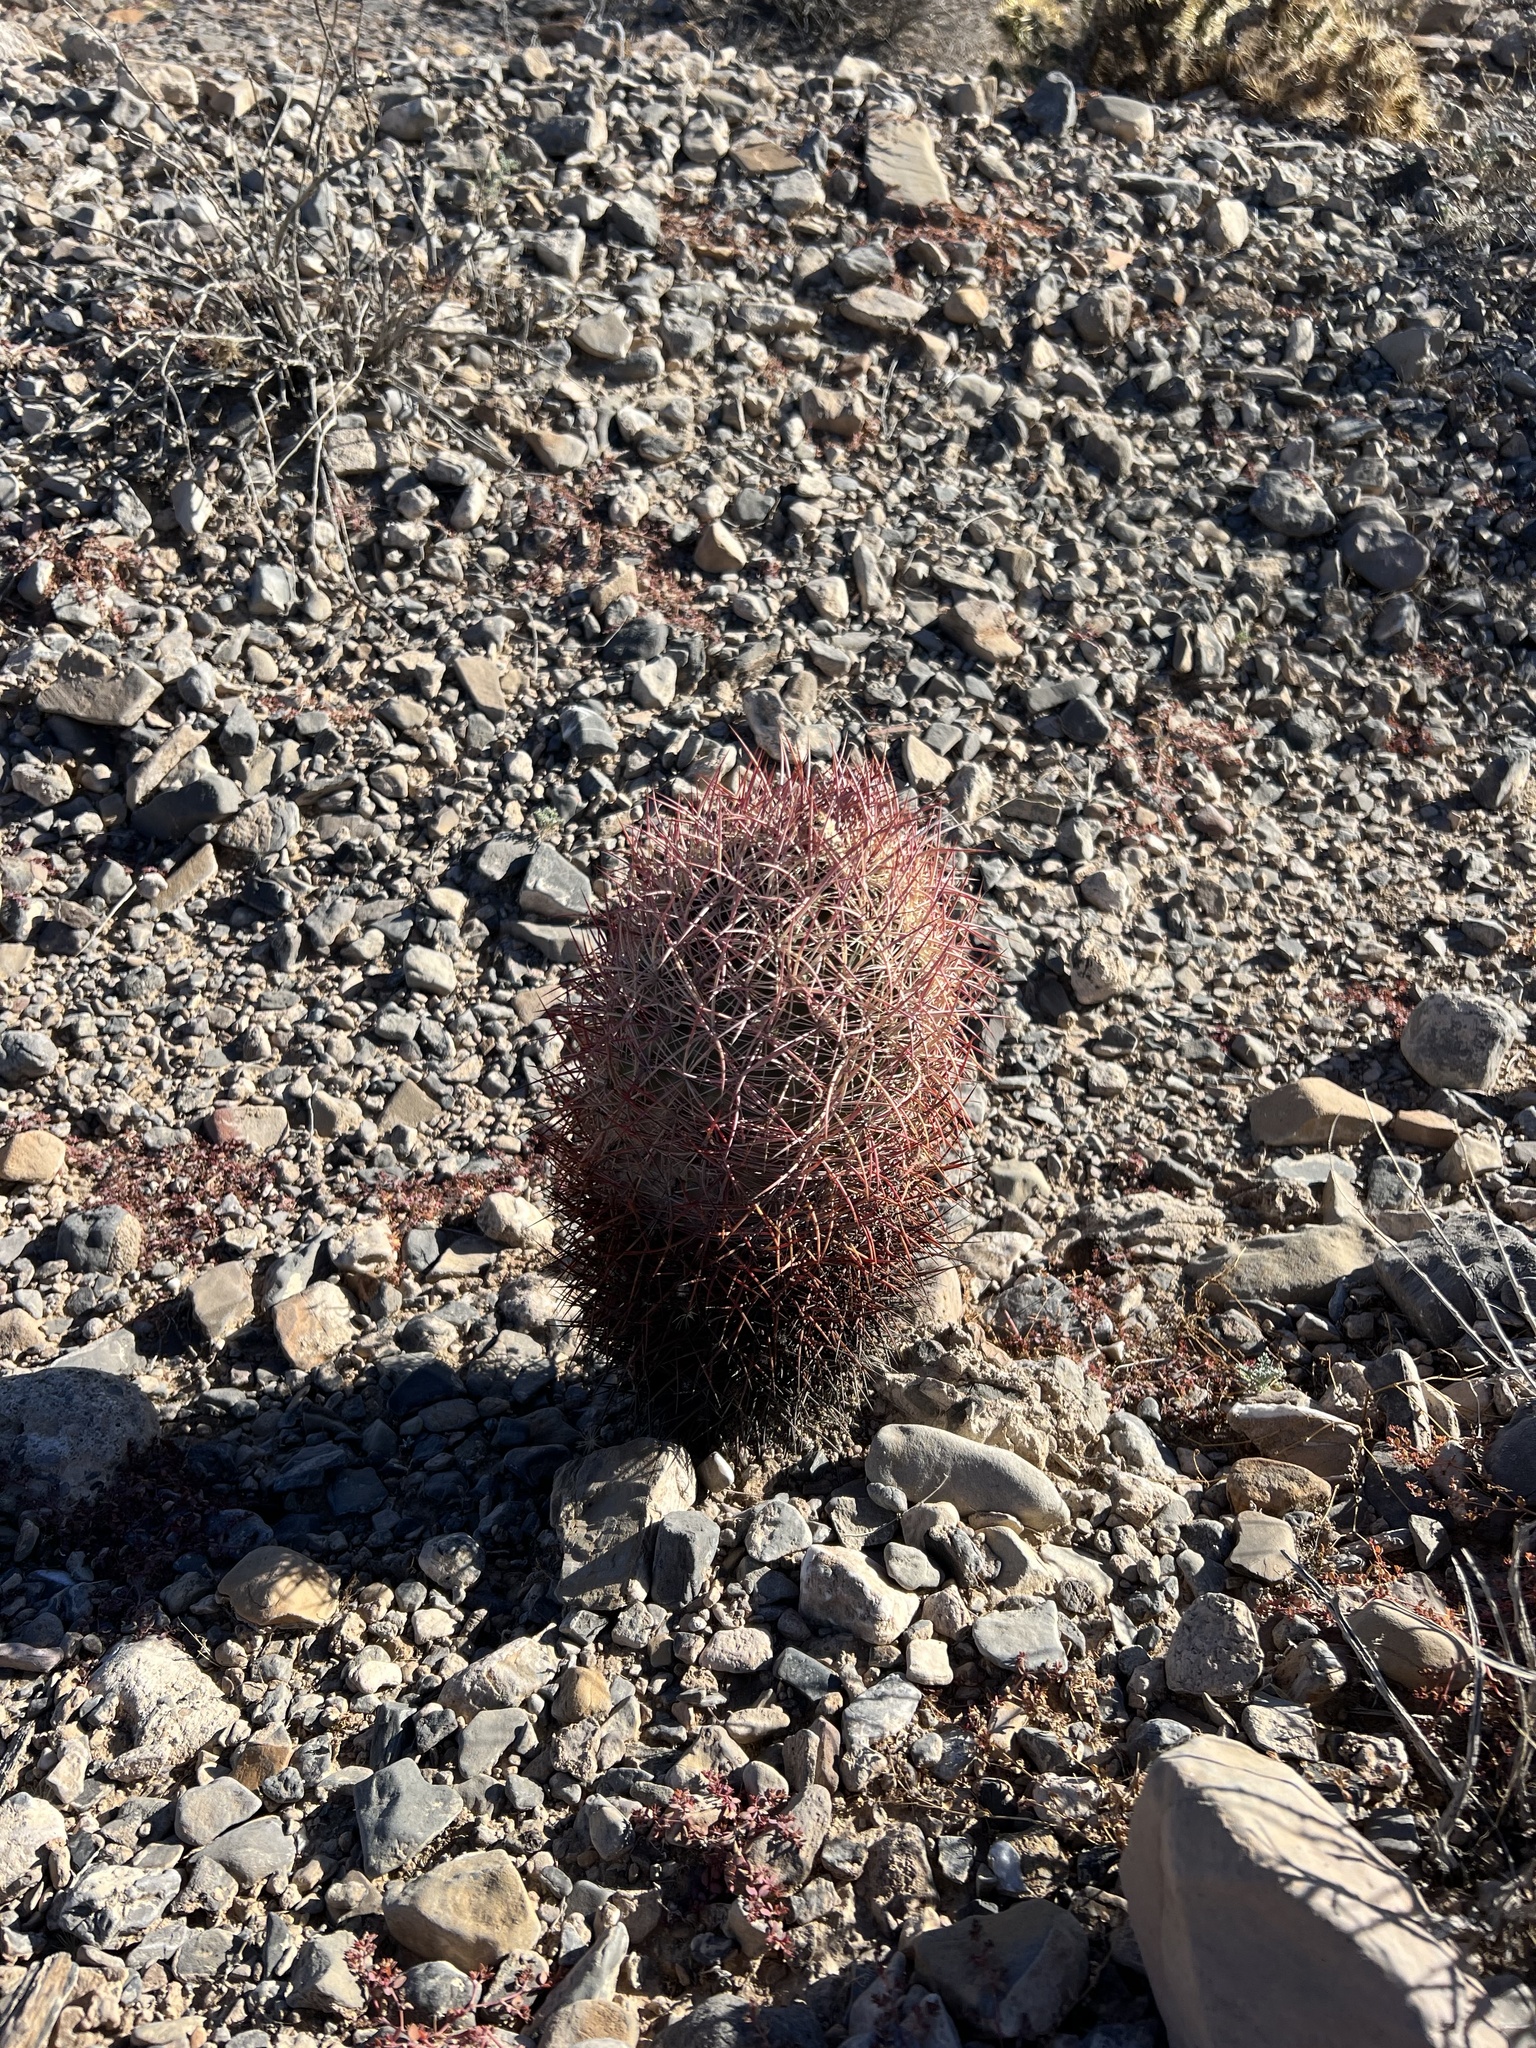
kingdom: Plantae
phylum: Tracheophyta
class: Magnoliopsida
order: Caryophyllales
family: Cactaceae
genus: Sclerocactus
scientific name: Sclerocactus johnsonii
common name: Eight-spine fishhook cactus
